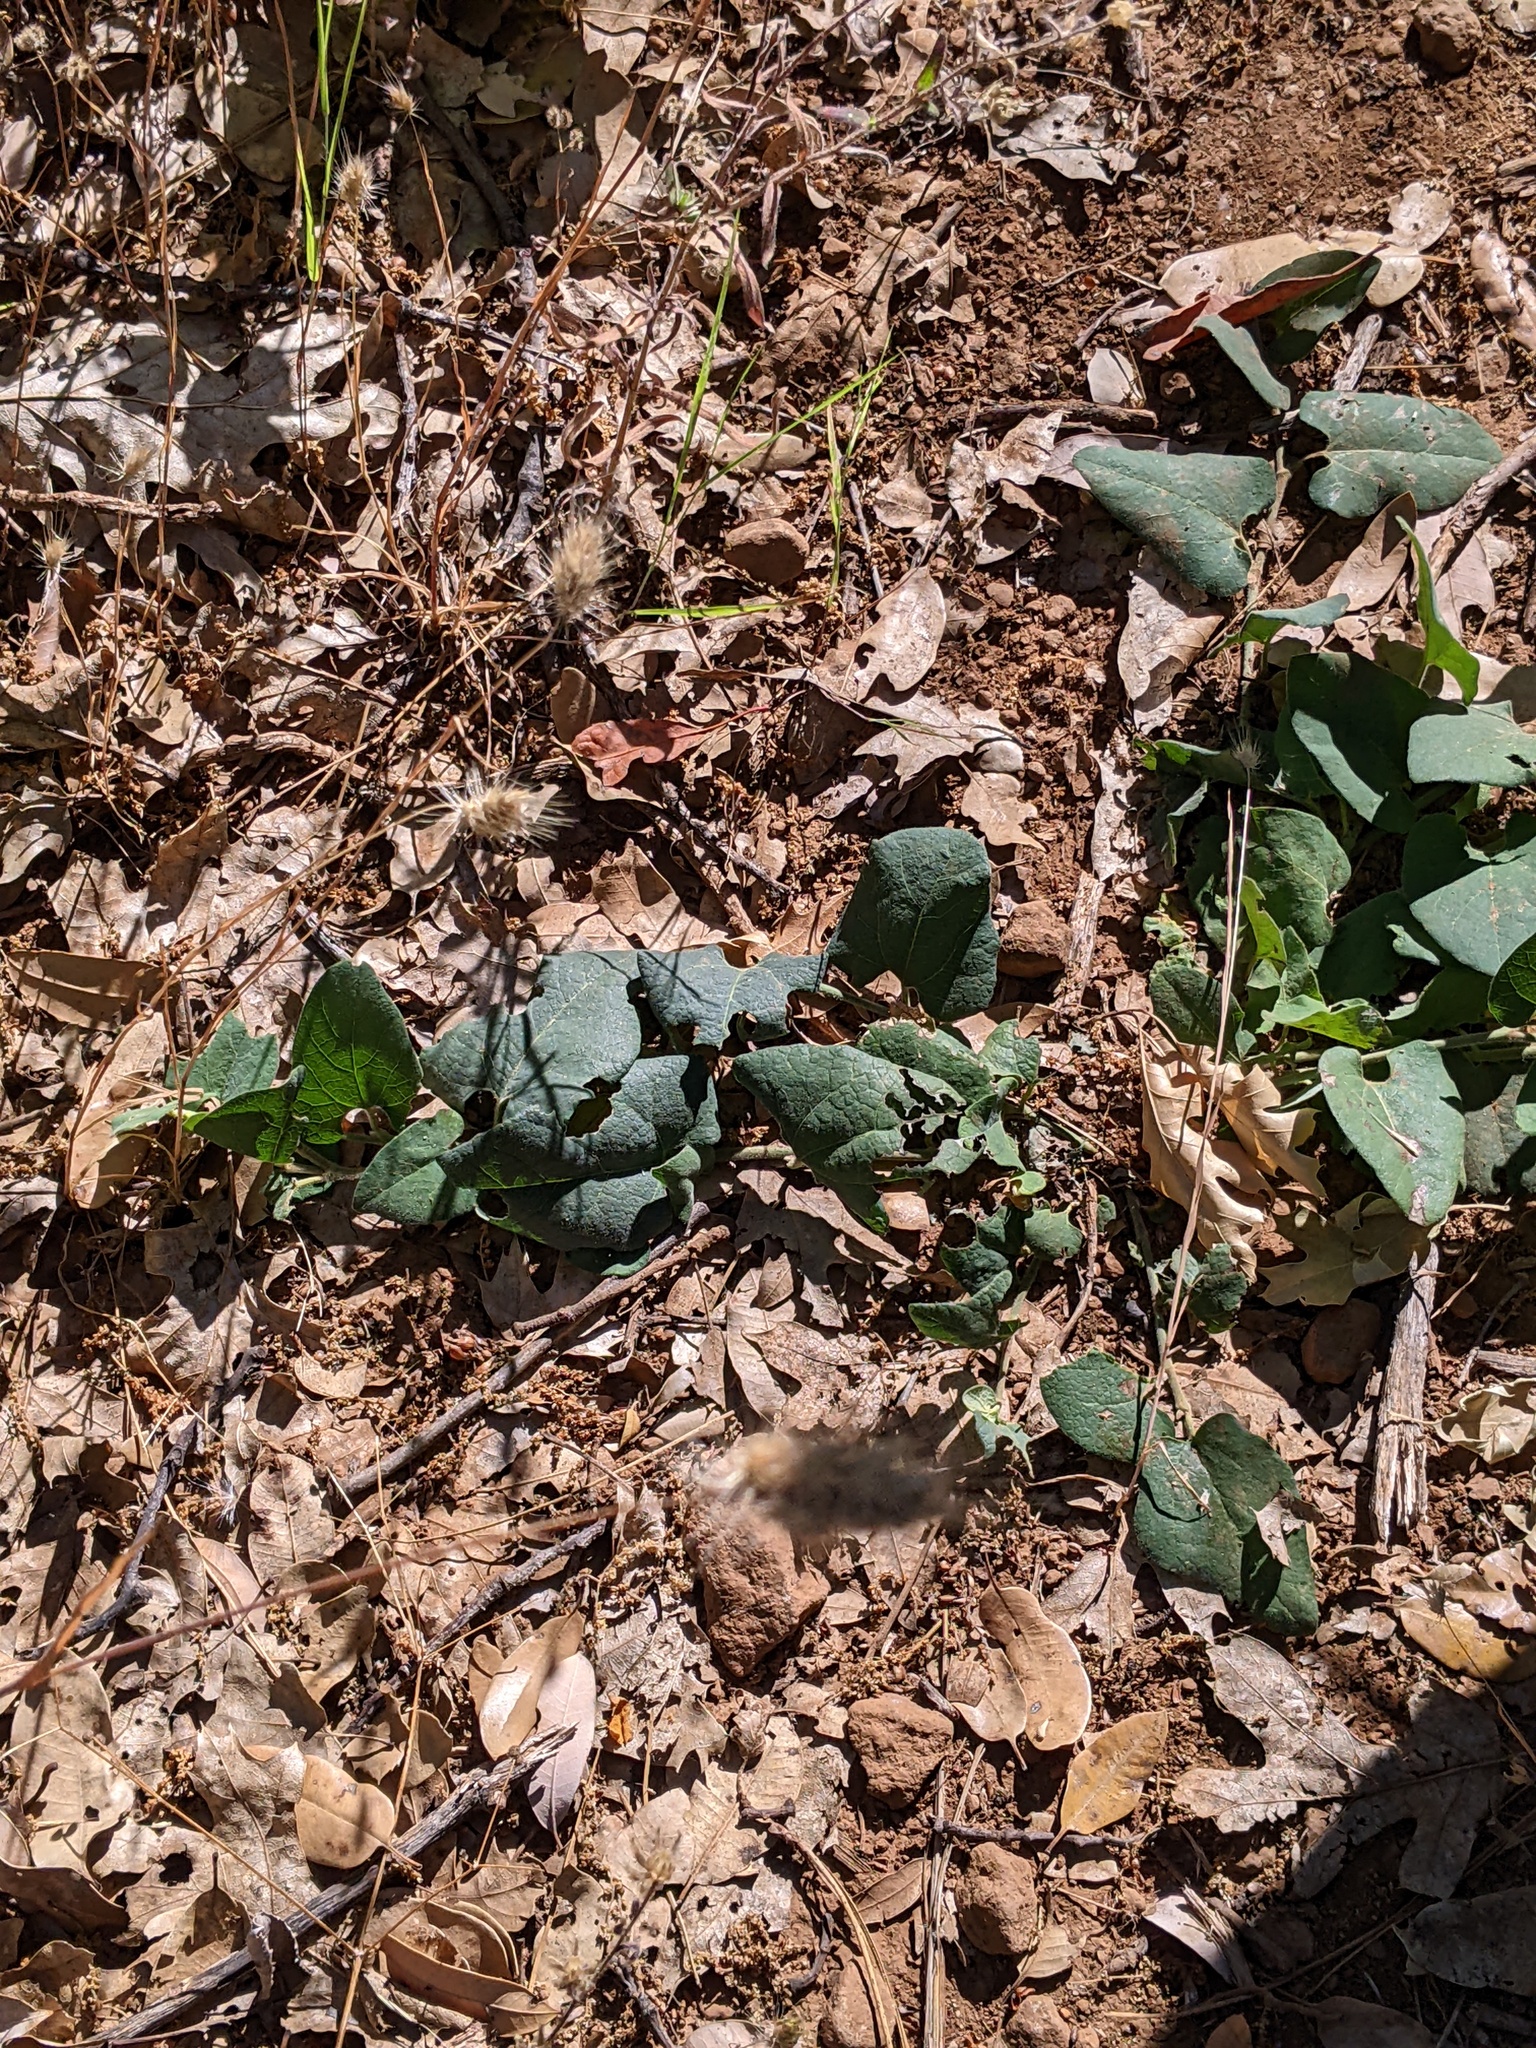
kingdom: Plantae
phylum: Tracheophyta
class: Magnoliopsida
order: Piperales
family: Aristolochiaceae
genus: Isotrema
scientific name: Isotrema californicum
